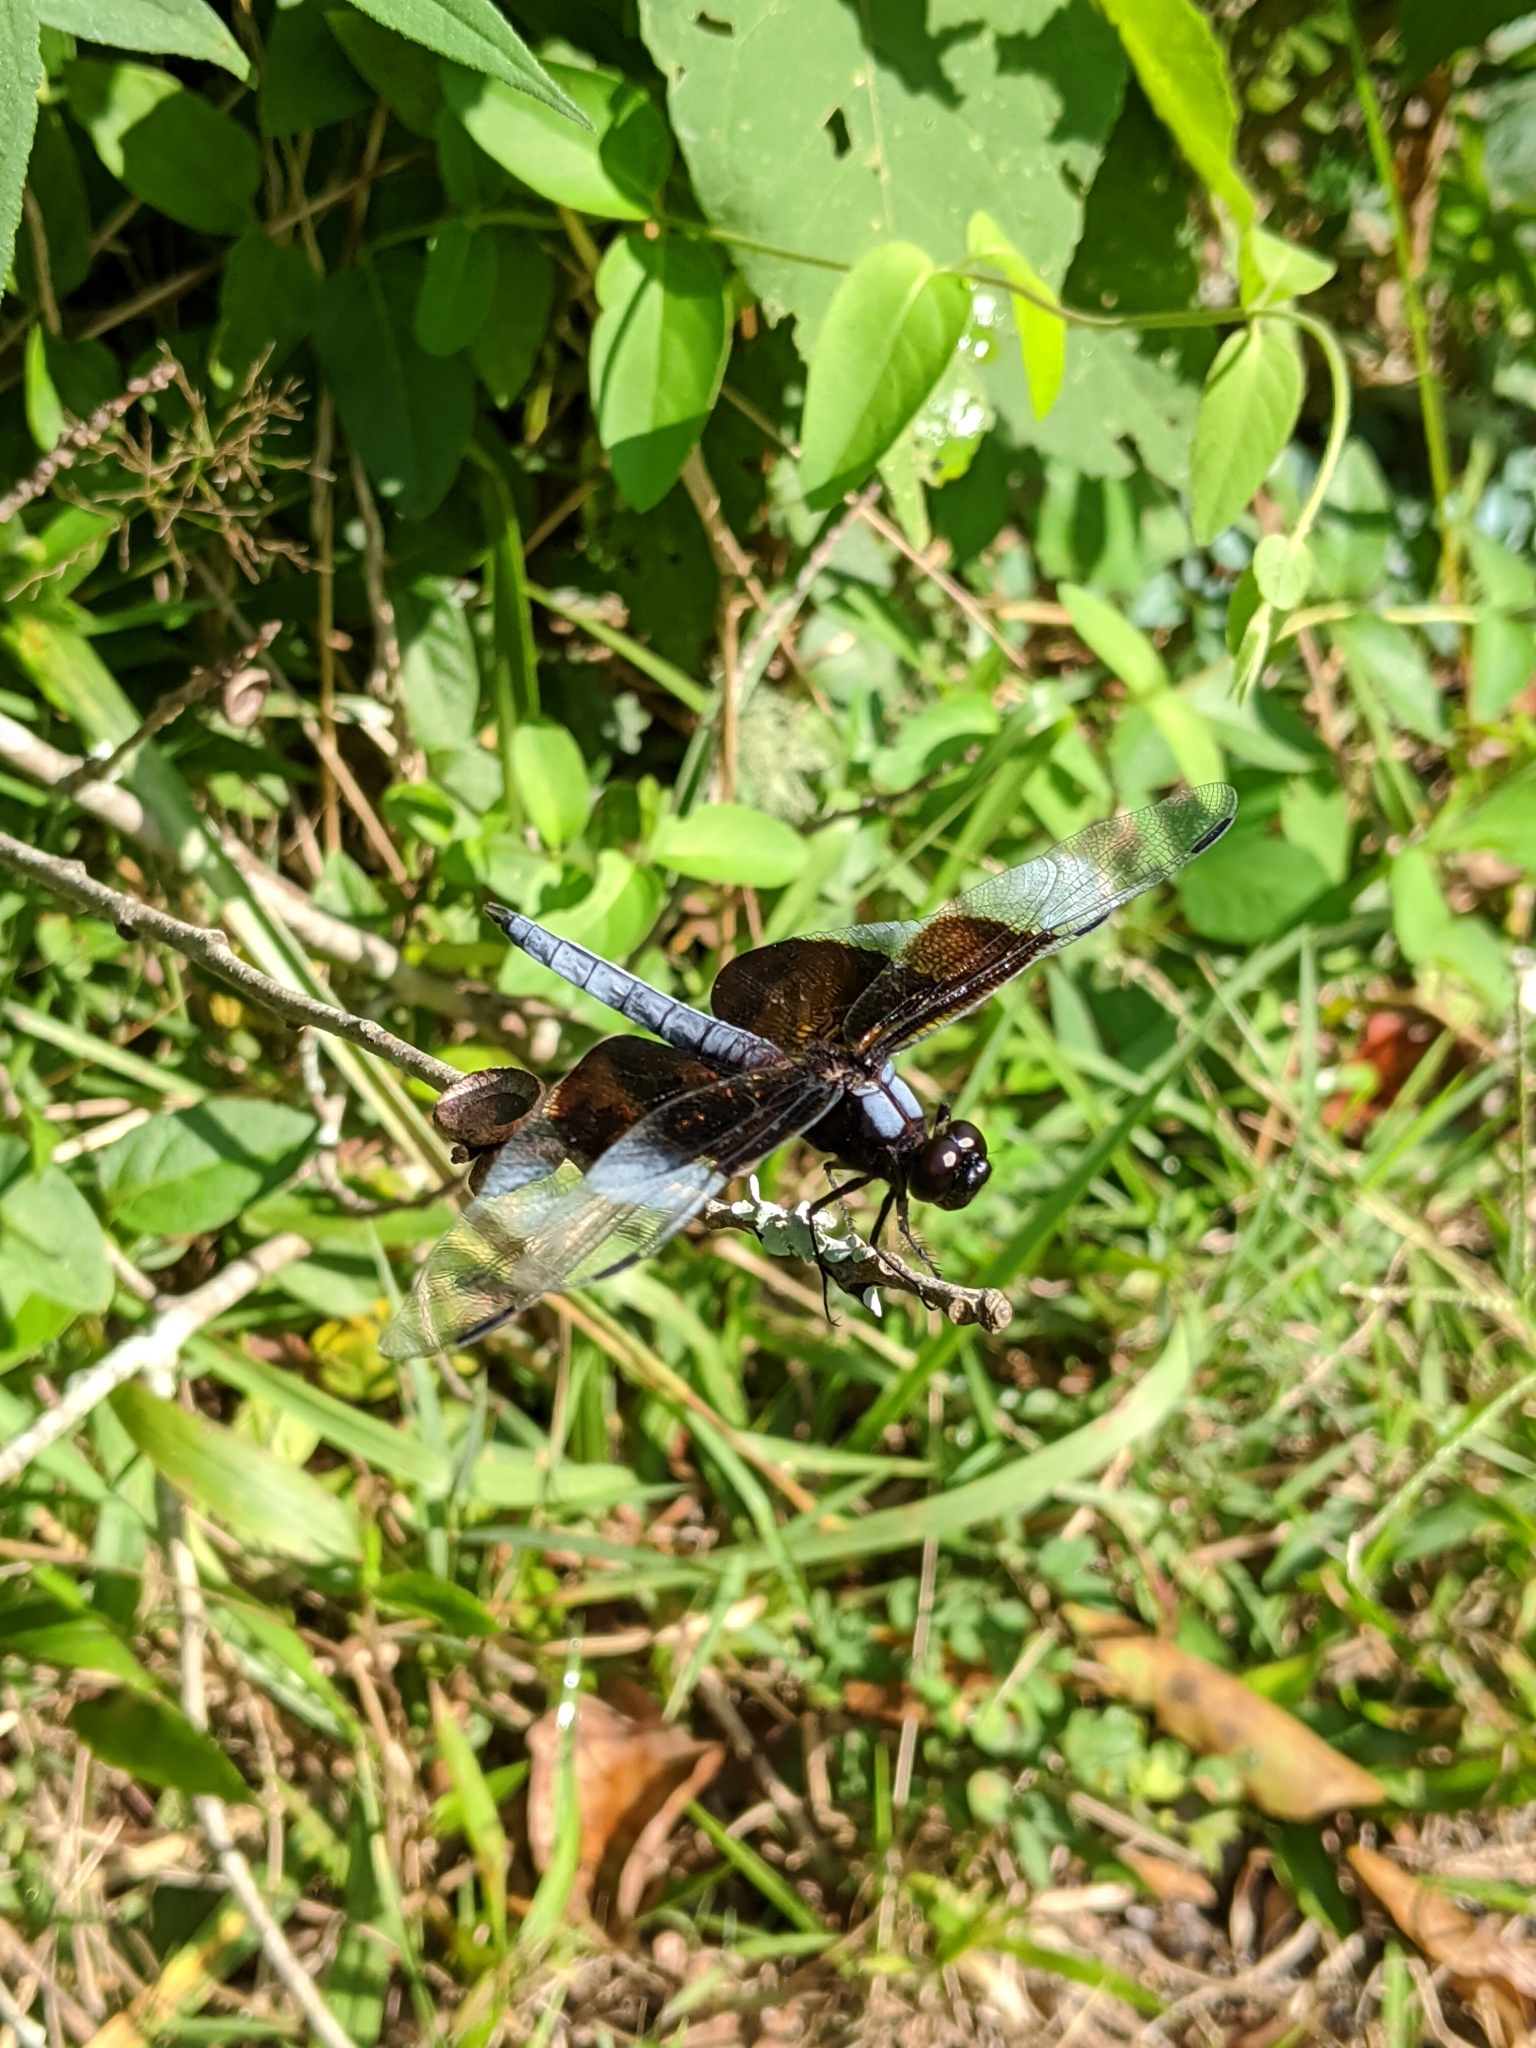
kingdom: Animalia
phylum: Arthropoda
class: Insecta
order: Odonata
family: Libellulidae
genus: Libellula
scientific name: Libellula luctuosa
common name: Widow skimmer
